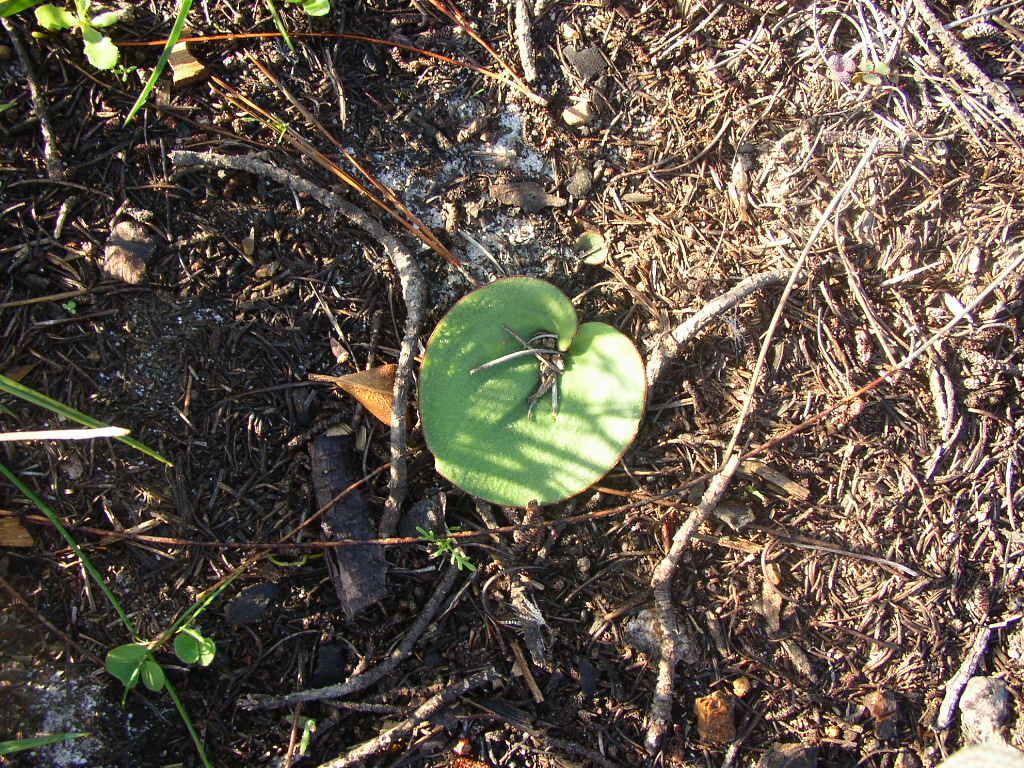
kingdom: Plantae
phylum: Tracheophyta
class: Liliopsida
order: Asparagales
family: Asparagaceae
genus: Eriospermum
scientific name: Eriospermum nanum
